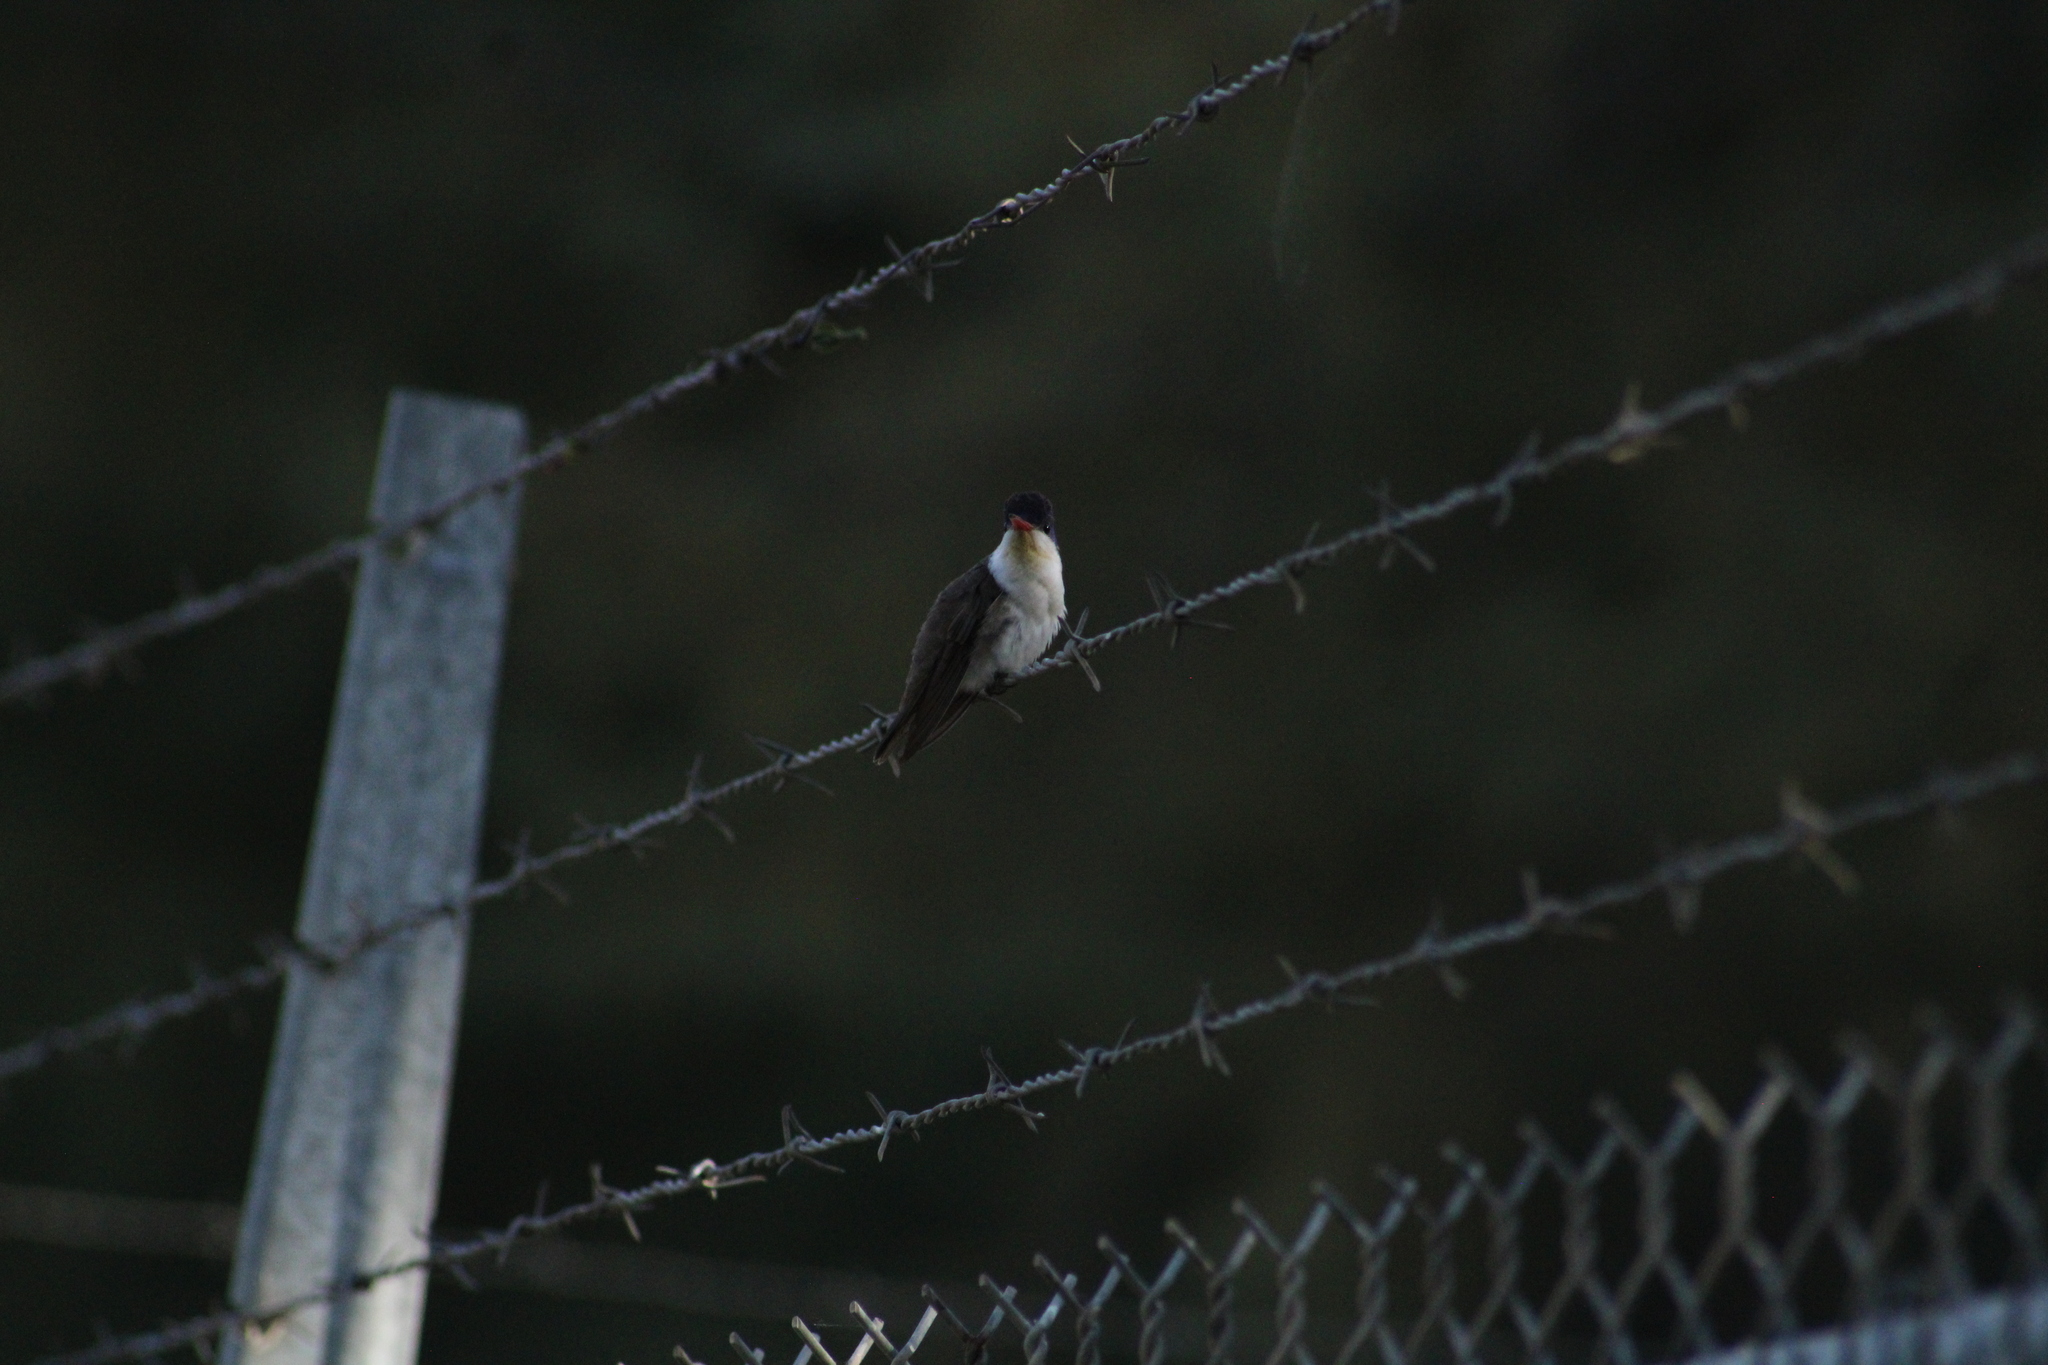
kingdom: Animalia
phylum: Chordata
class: Aves
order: Apodiformes
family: Trochilidae
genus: Leucolia
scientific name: Leucolia violiceps
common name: Violet-crowned hummingbird
